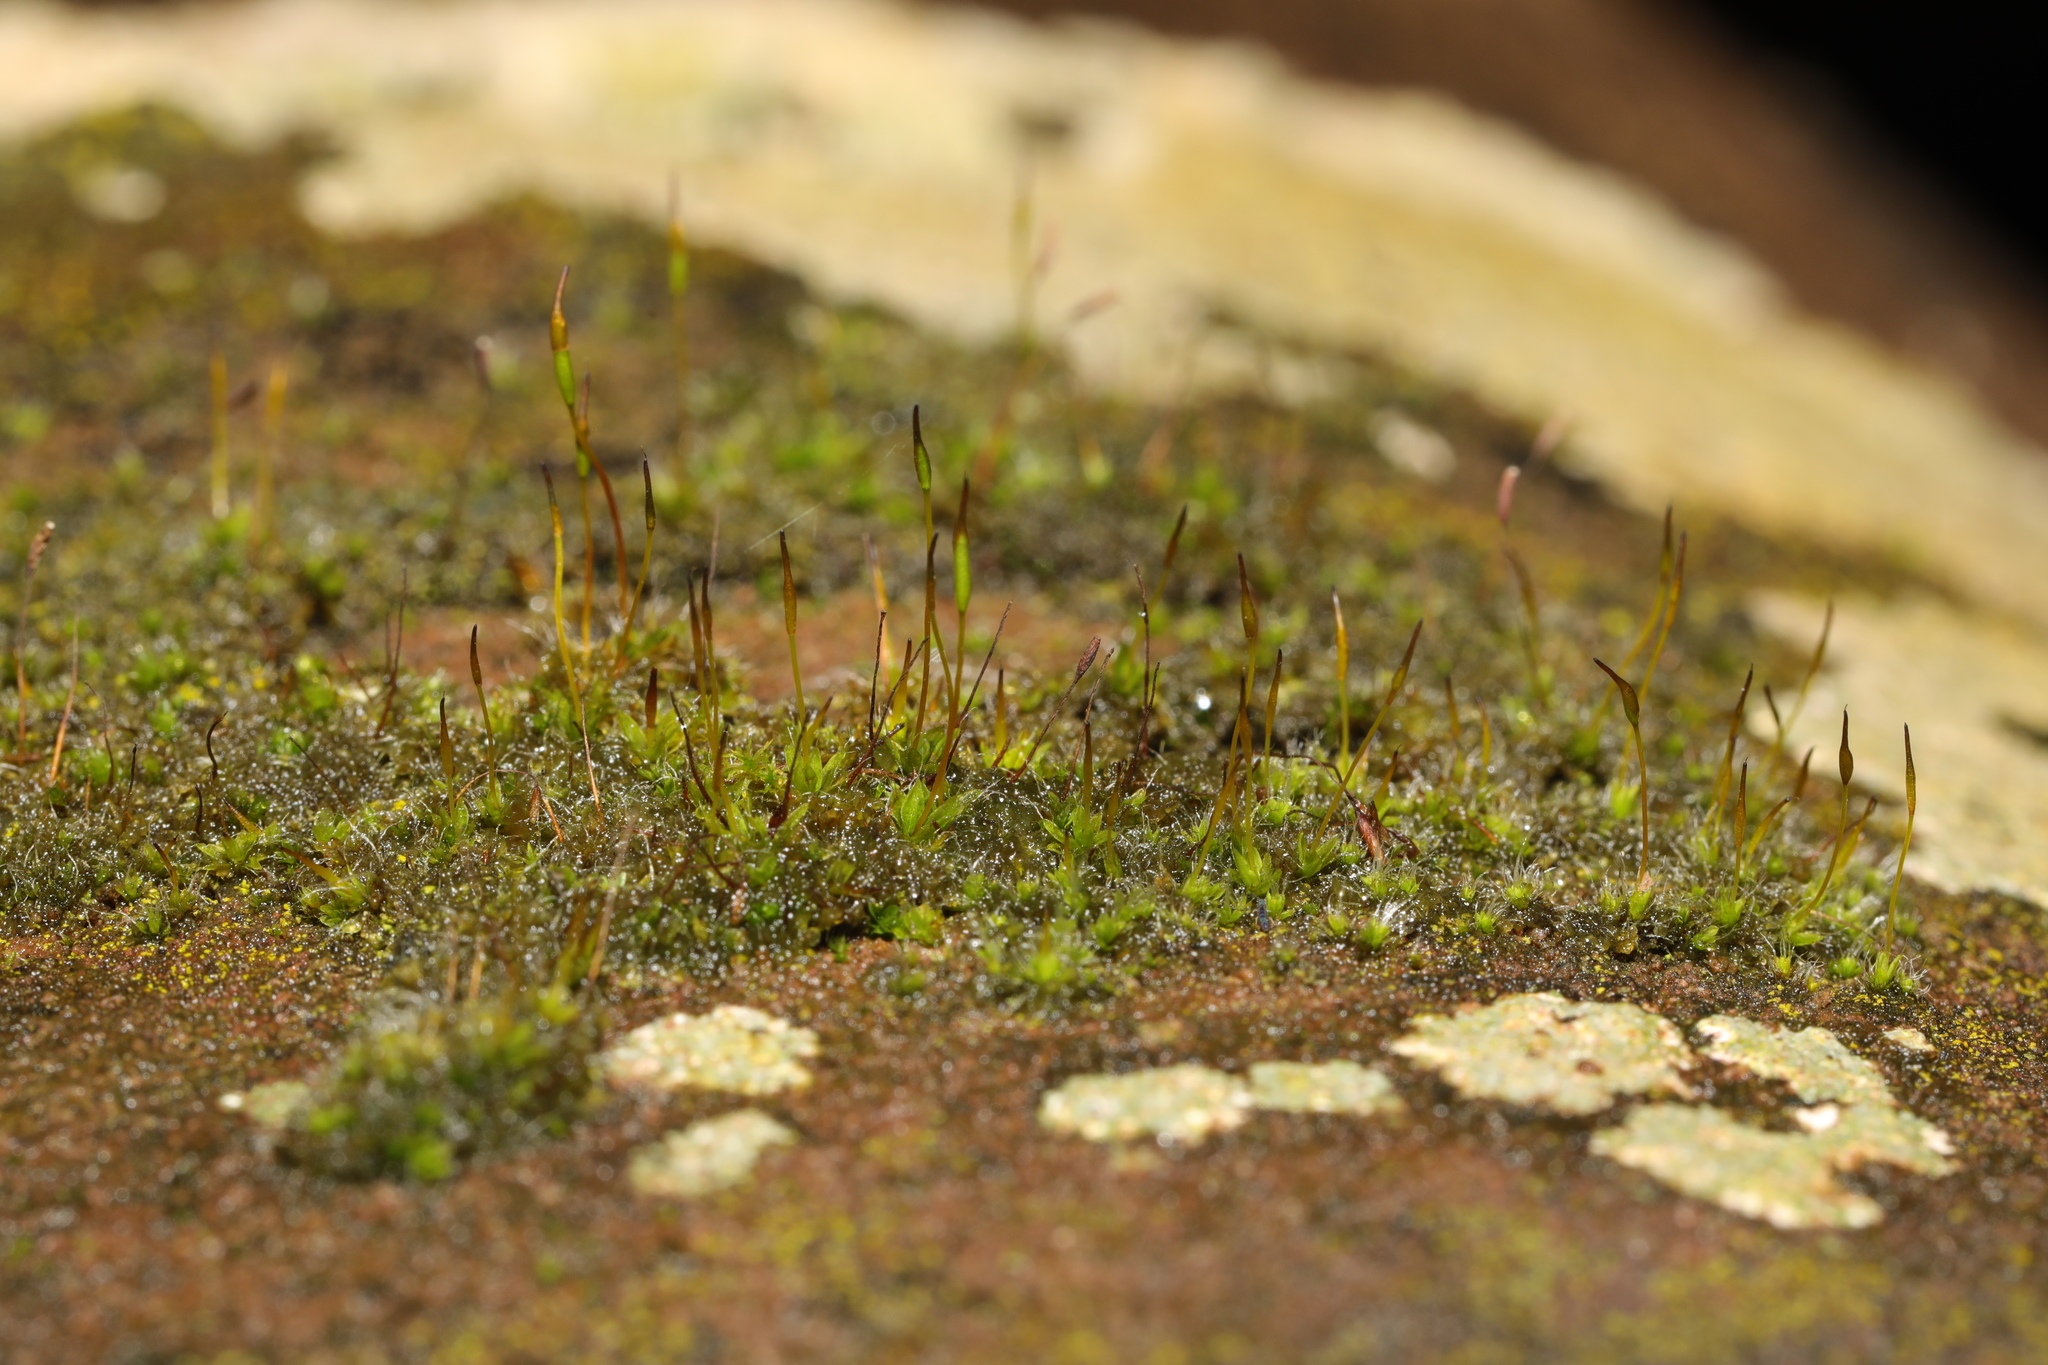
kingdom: Plantae
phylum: Bryophyta
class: Bryopsida
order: Pottiales
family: Pottiaceae
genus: Tortula
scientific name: Tortula muralis
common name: Wall screw-moss
